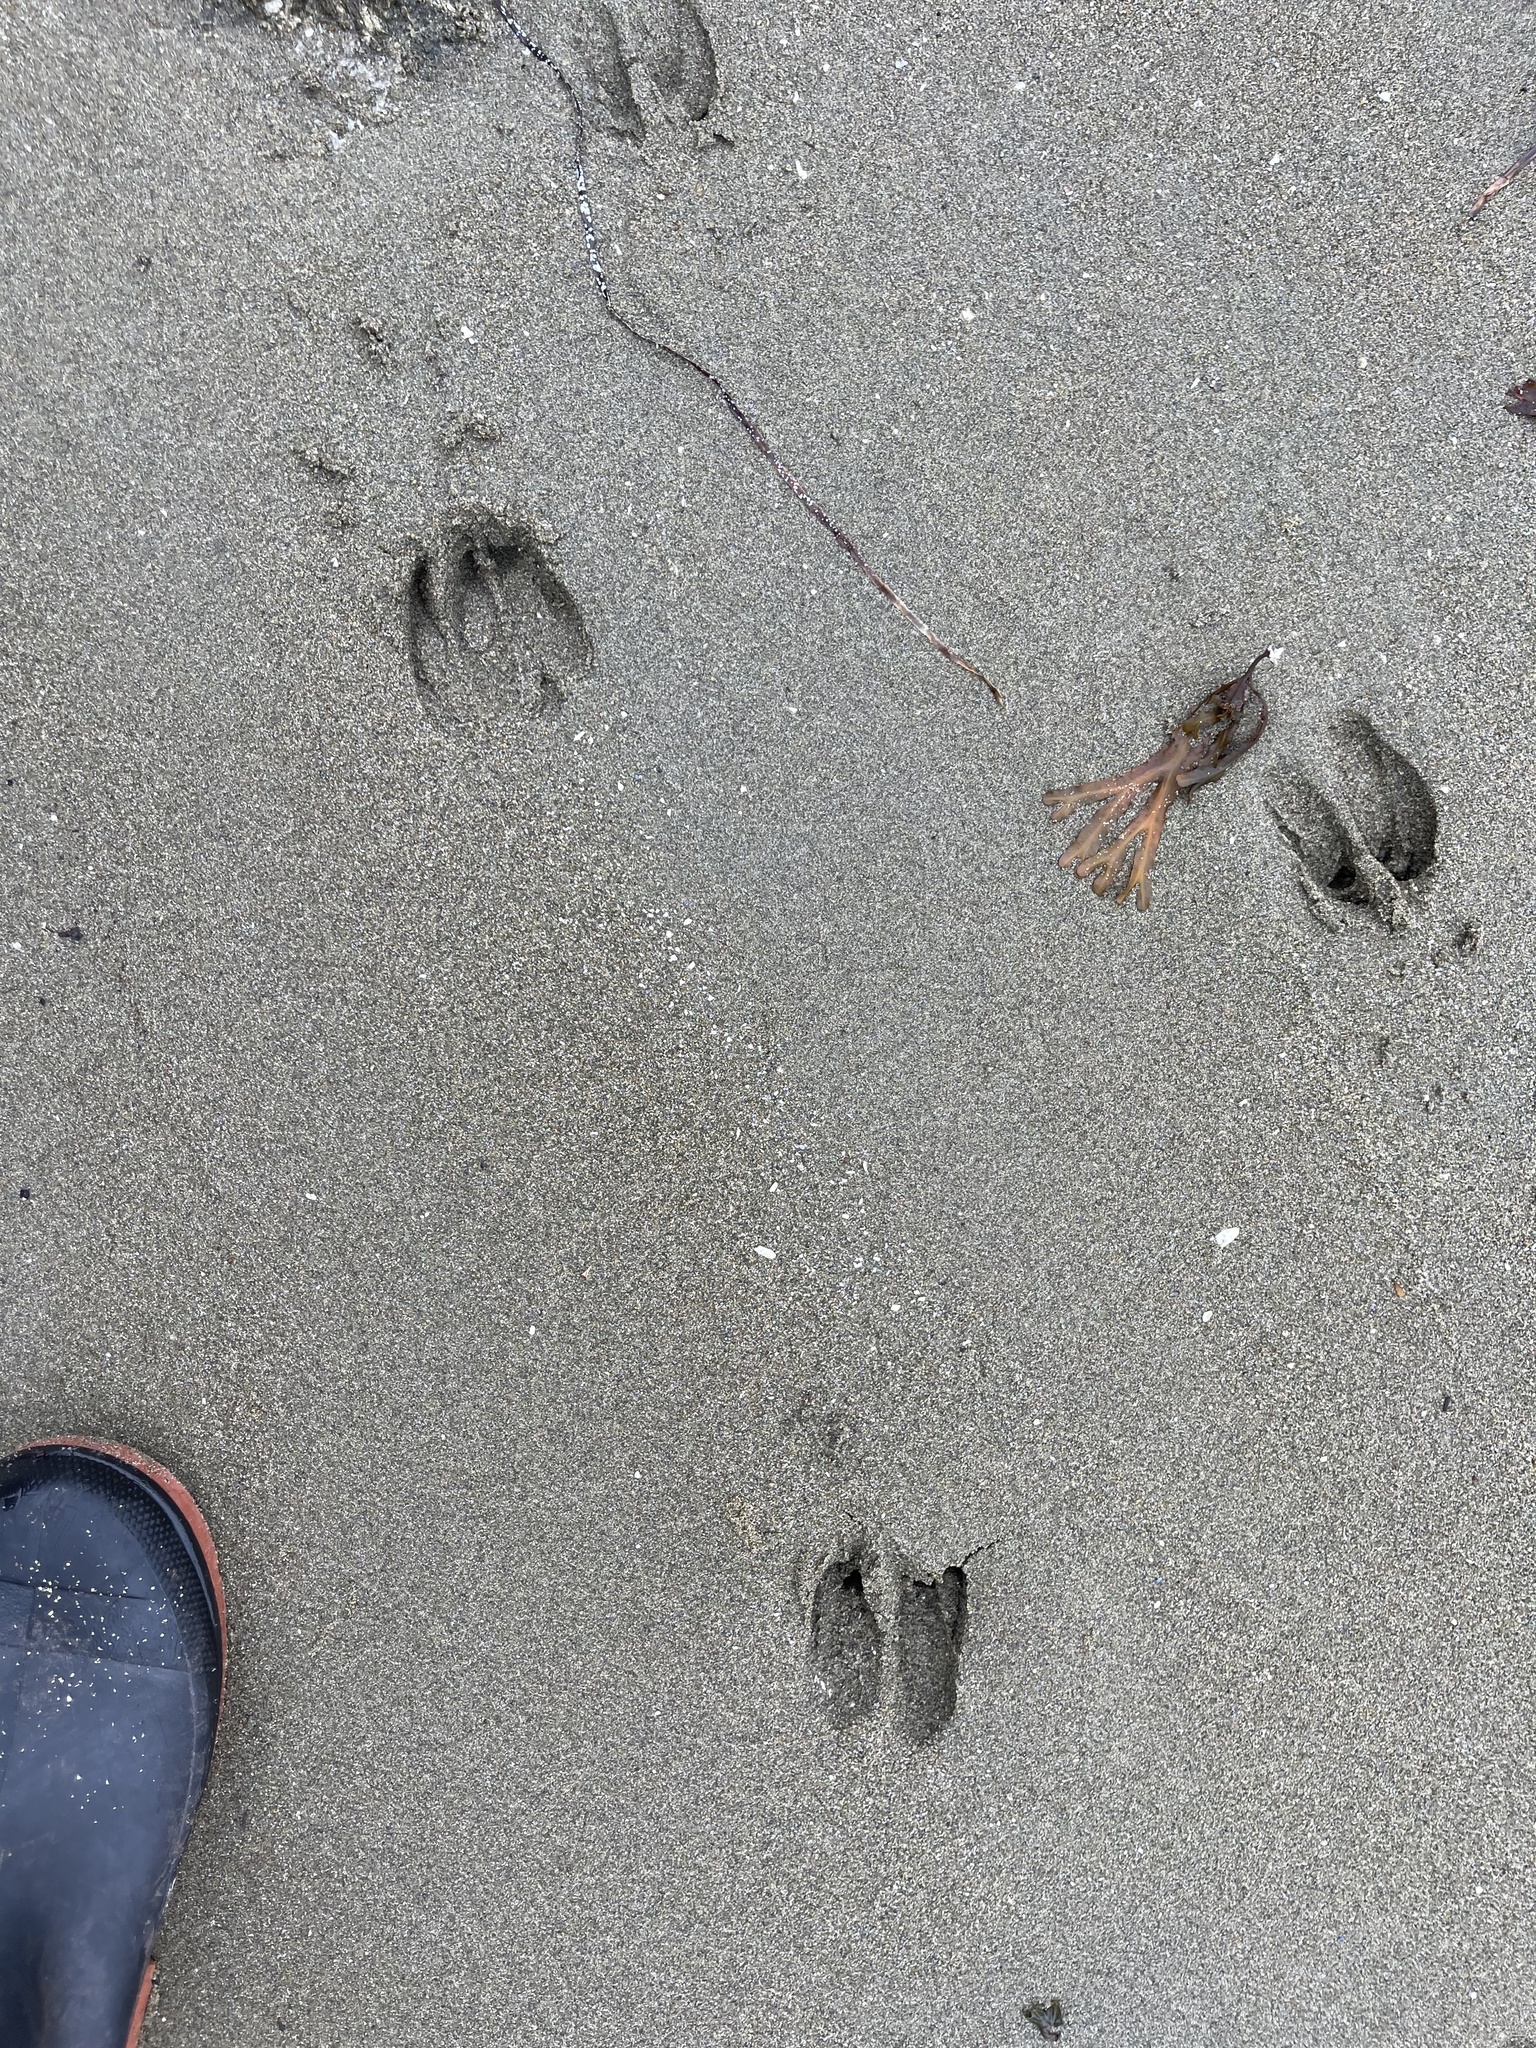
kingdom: Animalia
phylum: Chordata
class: Mammalia
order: Artiodactyla
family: Cervidae
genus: Odocoileus
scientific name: Odocoileus hemionus
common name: Mule deer
